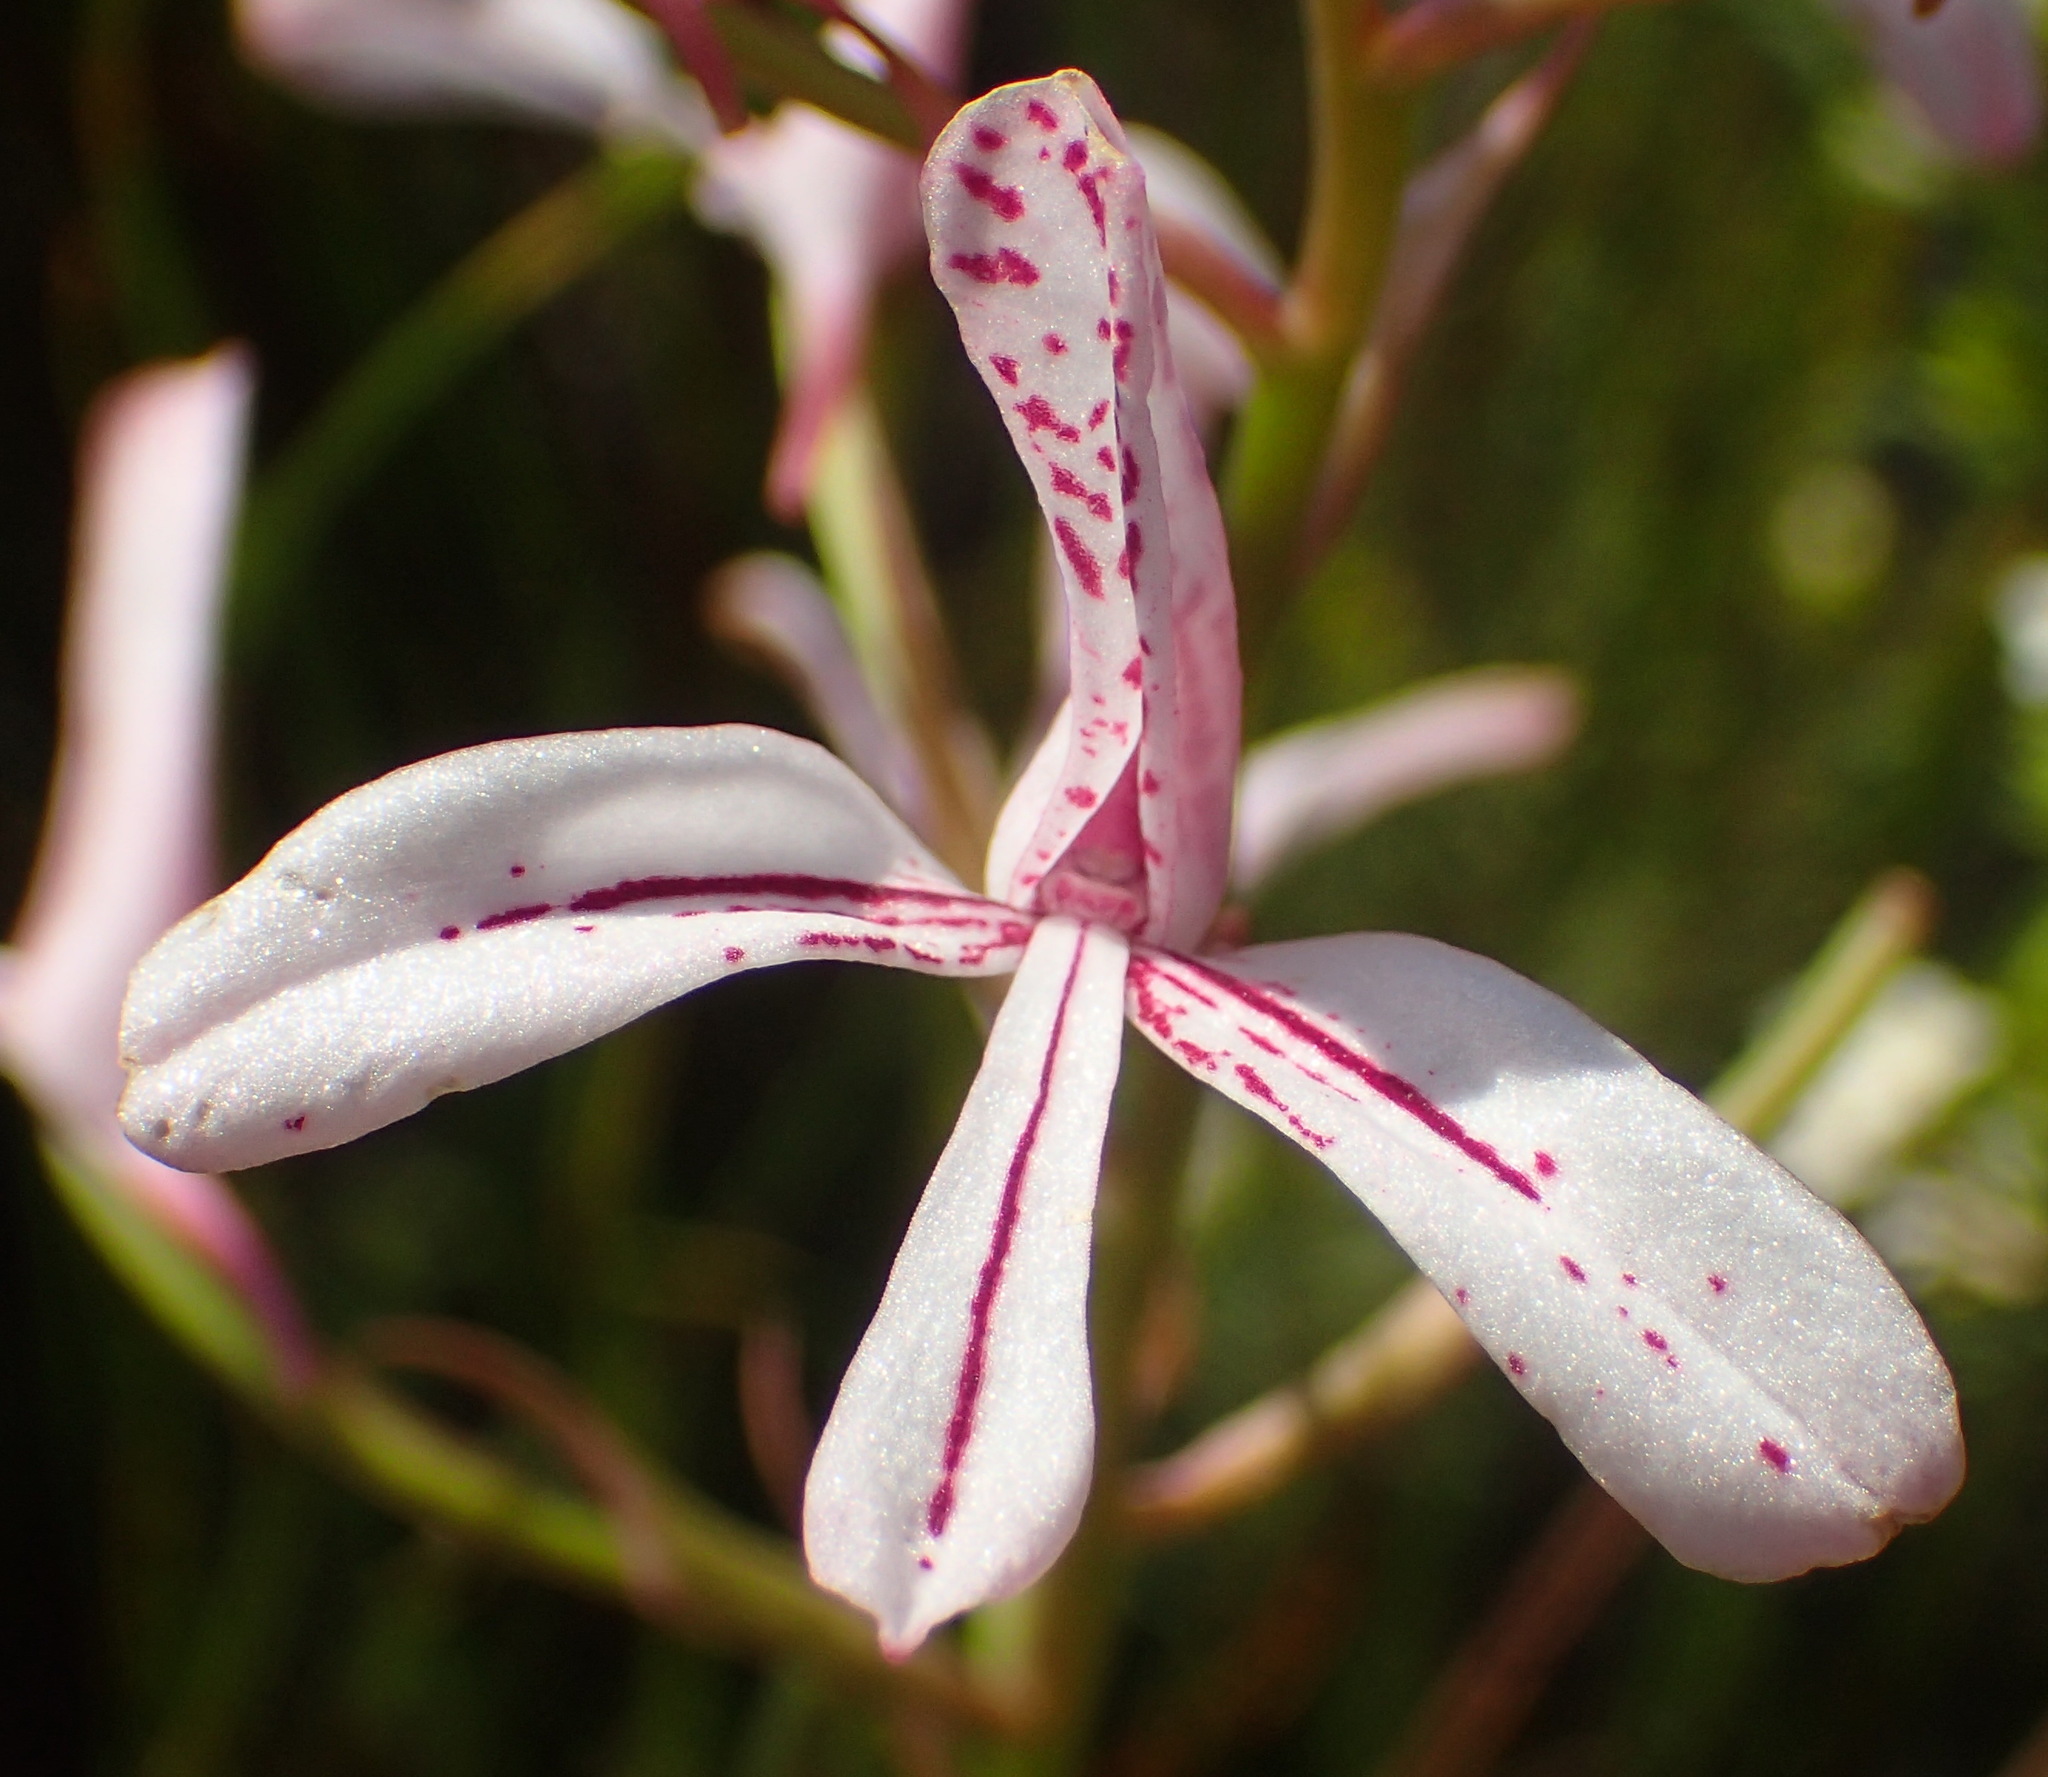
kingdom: Plantae
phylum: Tracheophyta
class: Liliopsida
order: Asparagales
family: Orchidaceae
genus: Disa
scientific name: Disa gladioliflora
